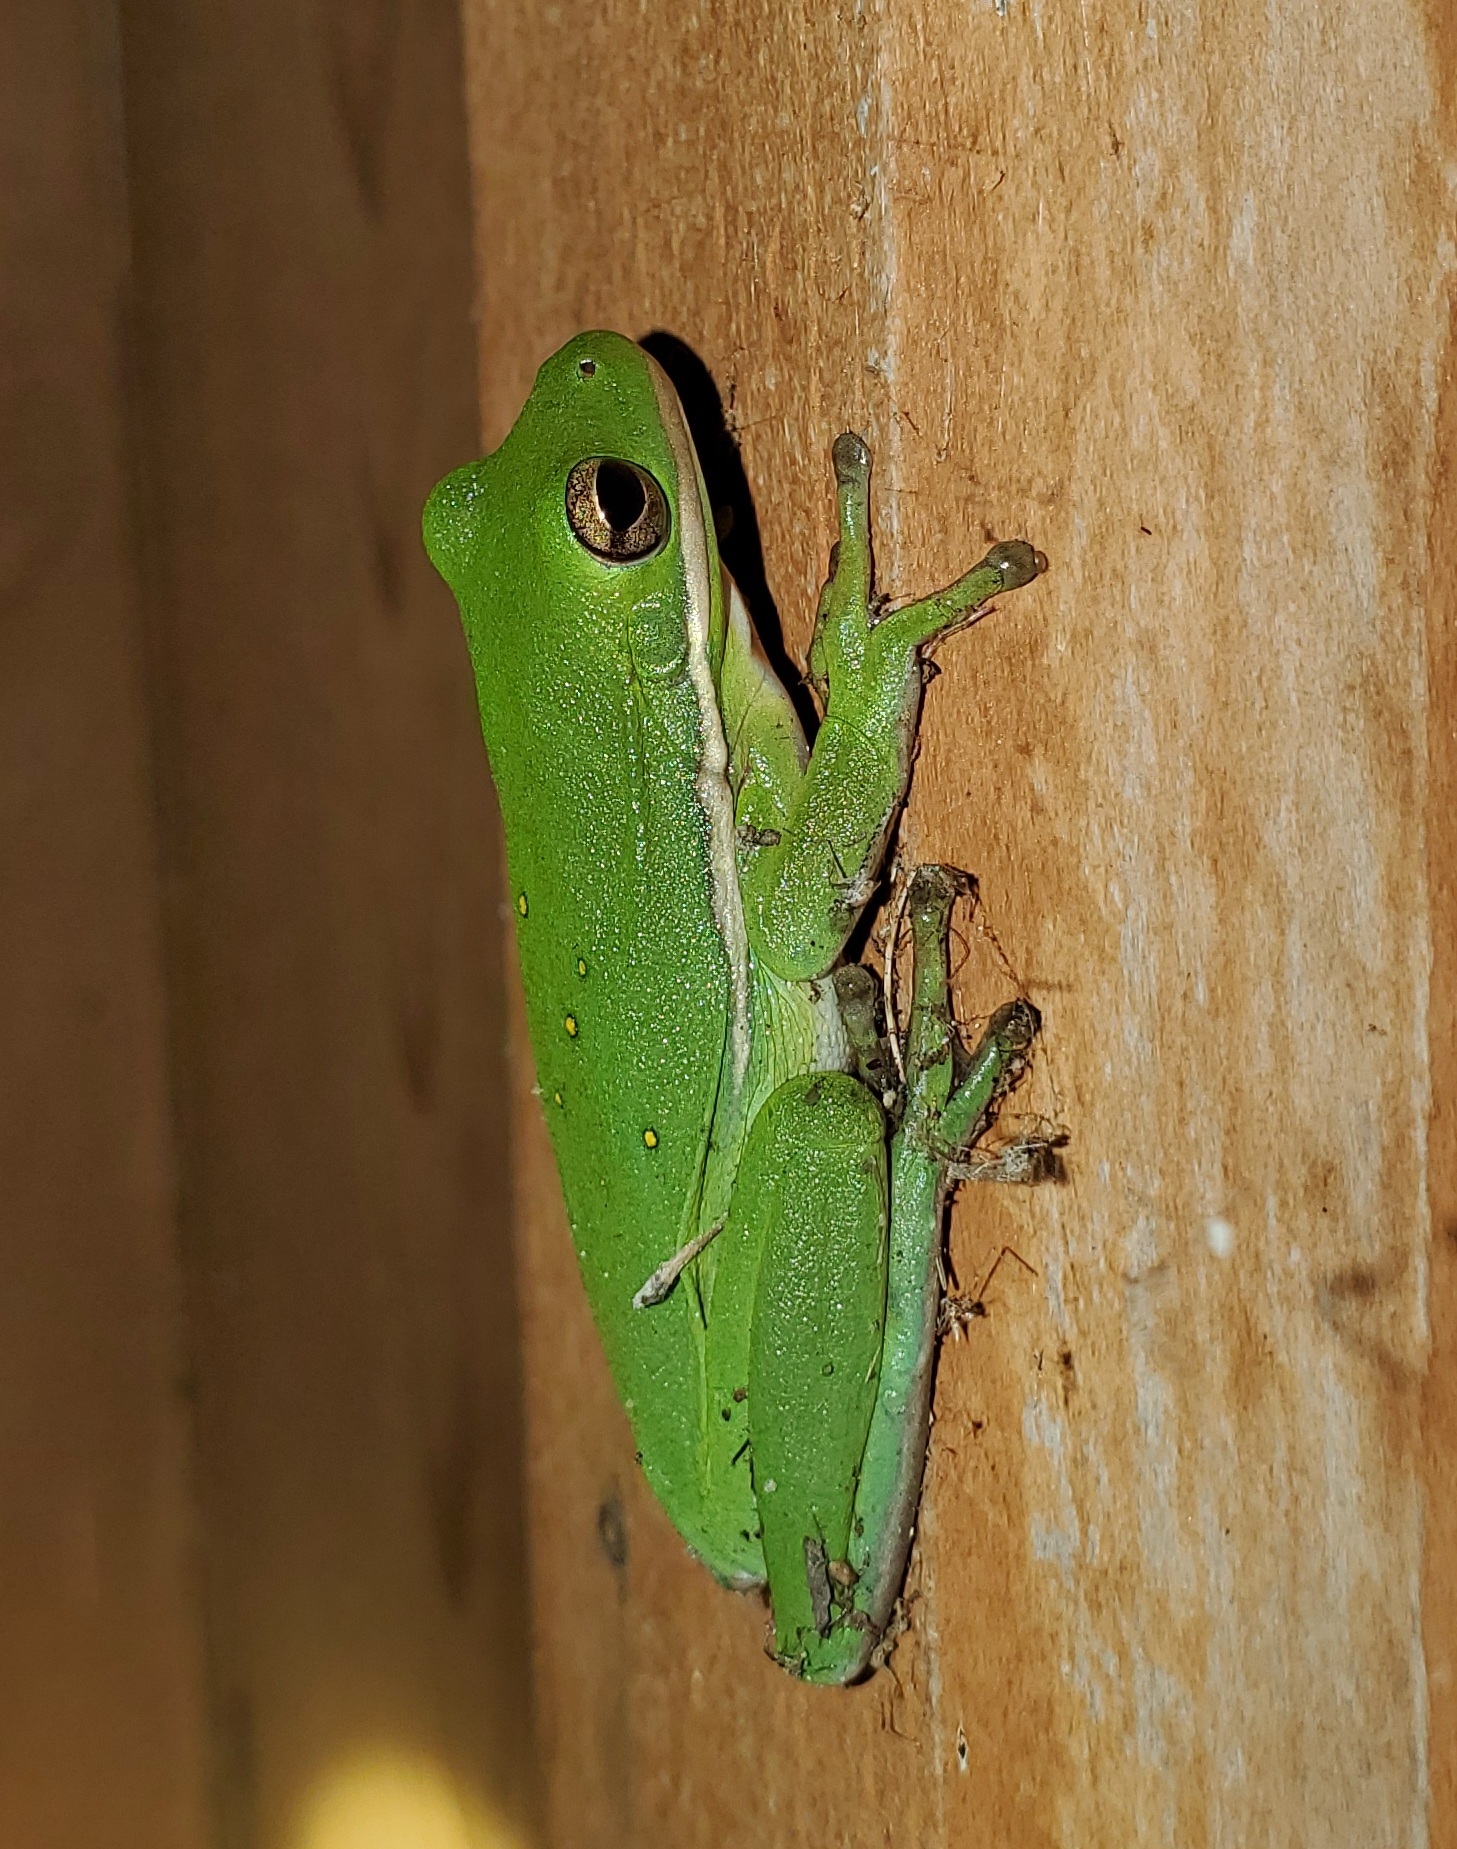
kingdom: Animalia
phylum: Chordata
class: Amphibia
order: Anura
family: Hylidae
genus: Dryophytes
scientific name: Dryophytes cinereus
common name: Green treefrog
